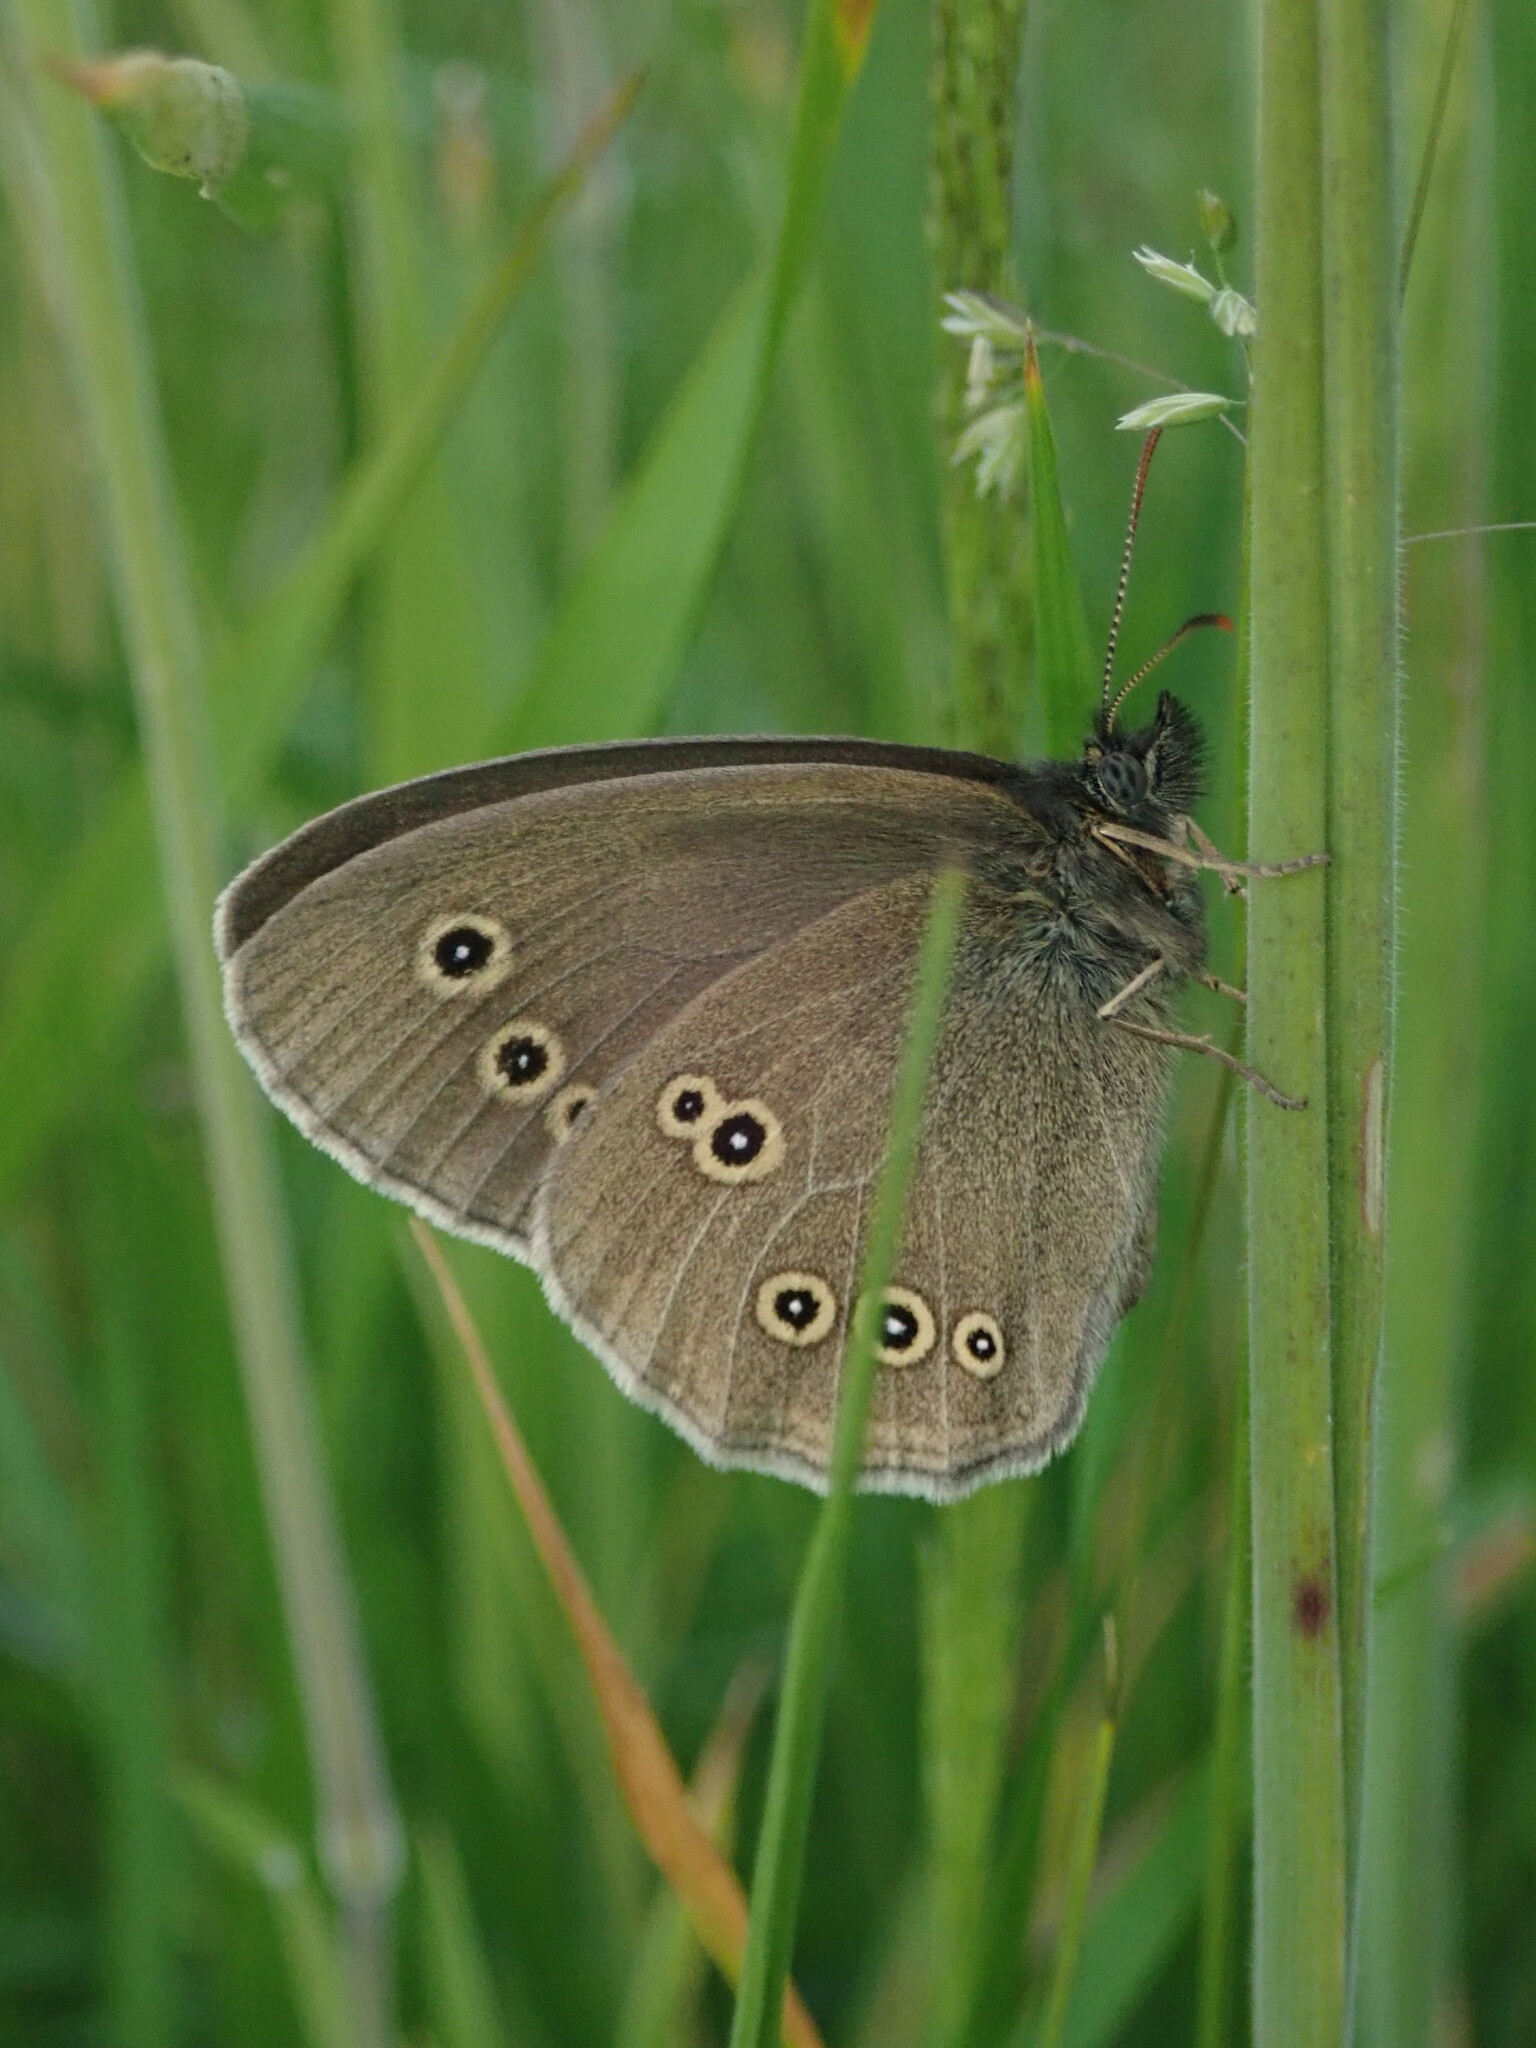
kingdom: Animalia
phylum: Arthropoda
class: Insecta
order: Lepidoptera
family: Nymphalidae
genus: Aphantopus
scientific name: Aphantopus hyperantus
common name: Ringlet
